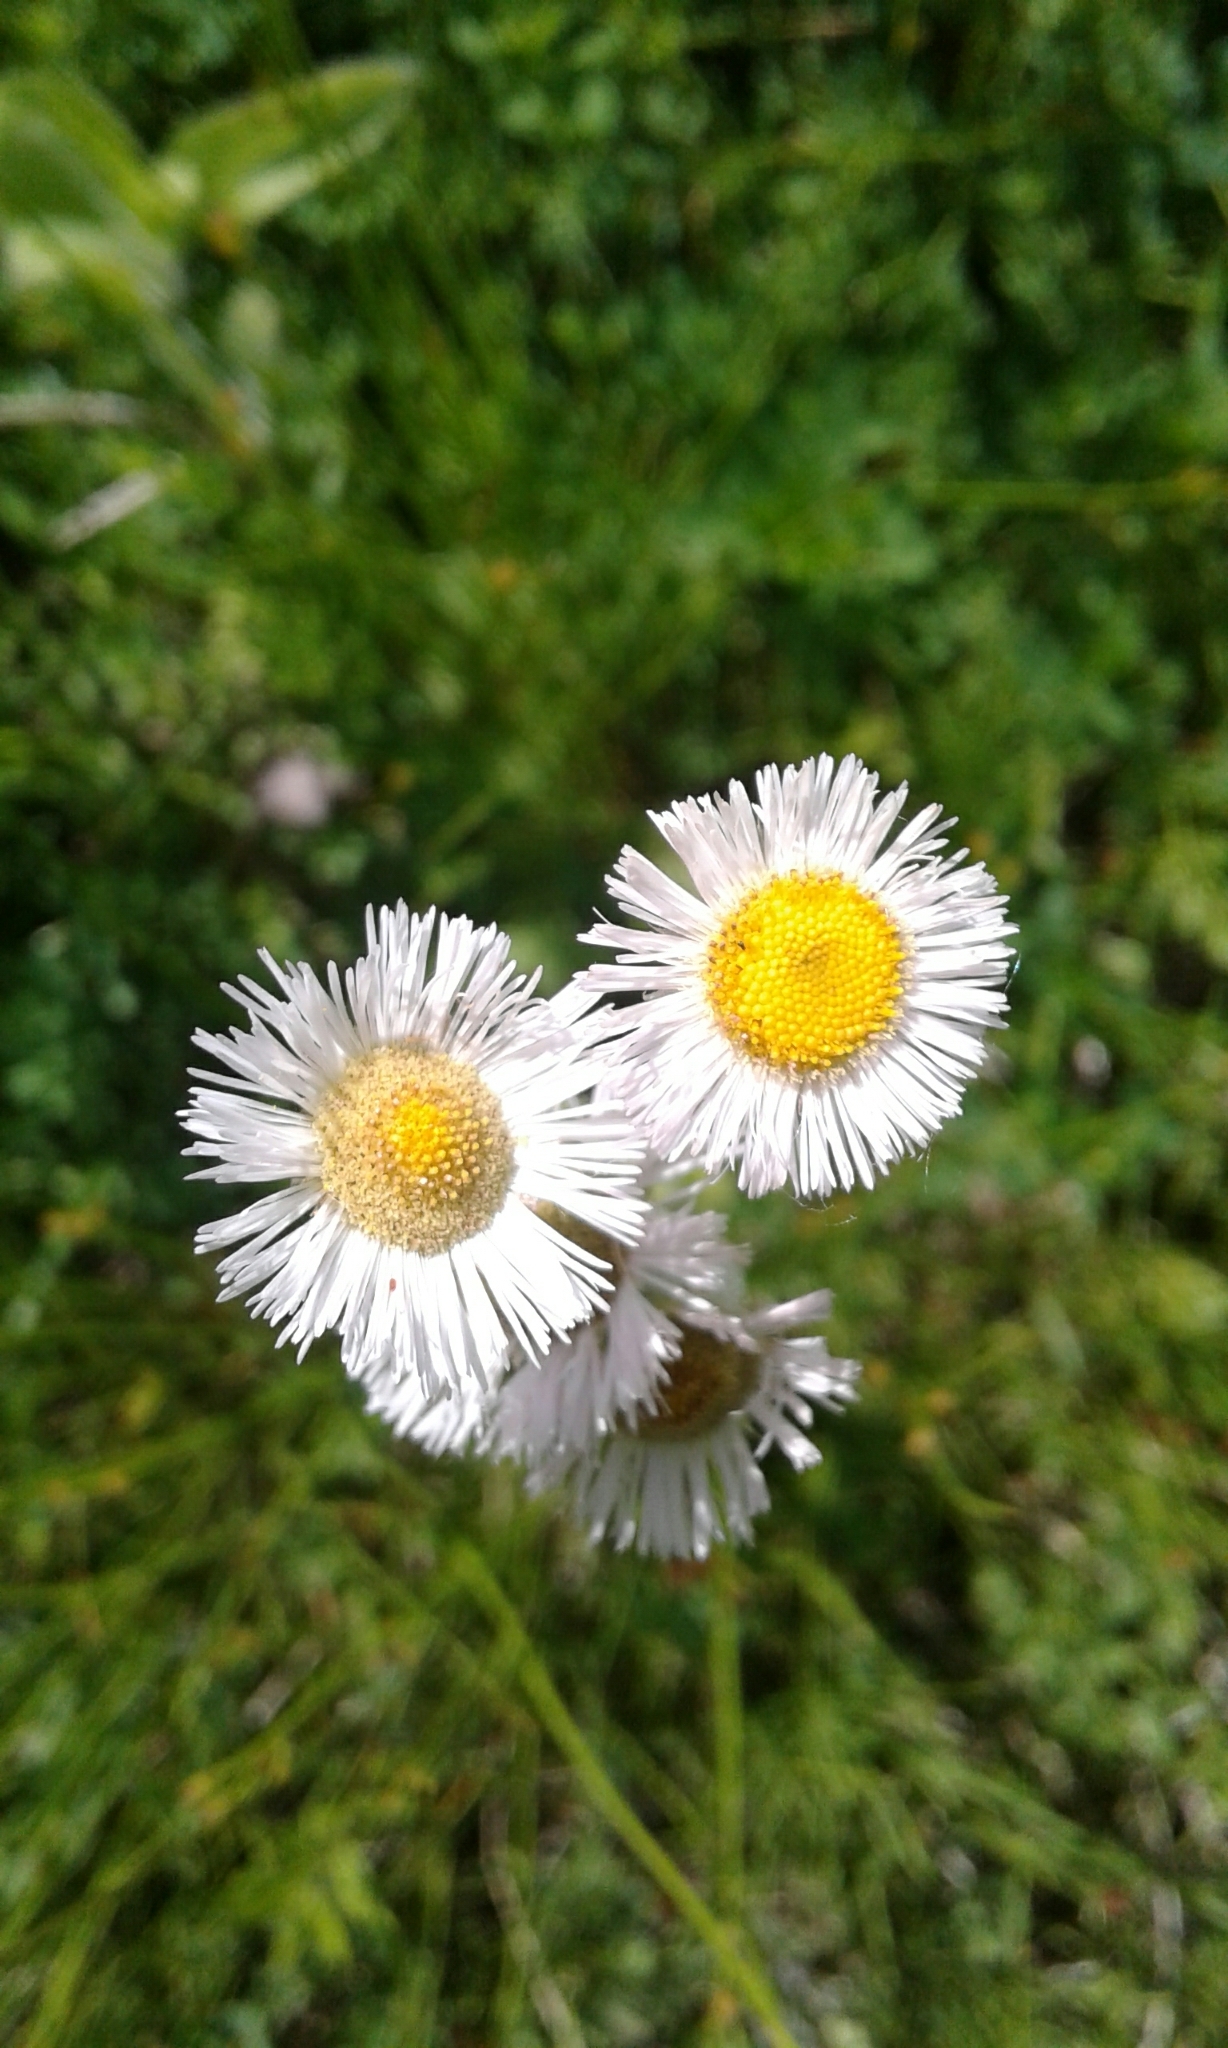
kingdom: Plantae
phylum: Tracheophyta
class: Magnoliopsida
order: Asterales
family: Asteraceae
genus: Erigeron
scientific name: Erigeron philadelphicus
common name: Robin's-plantain
